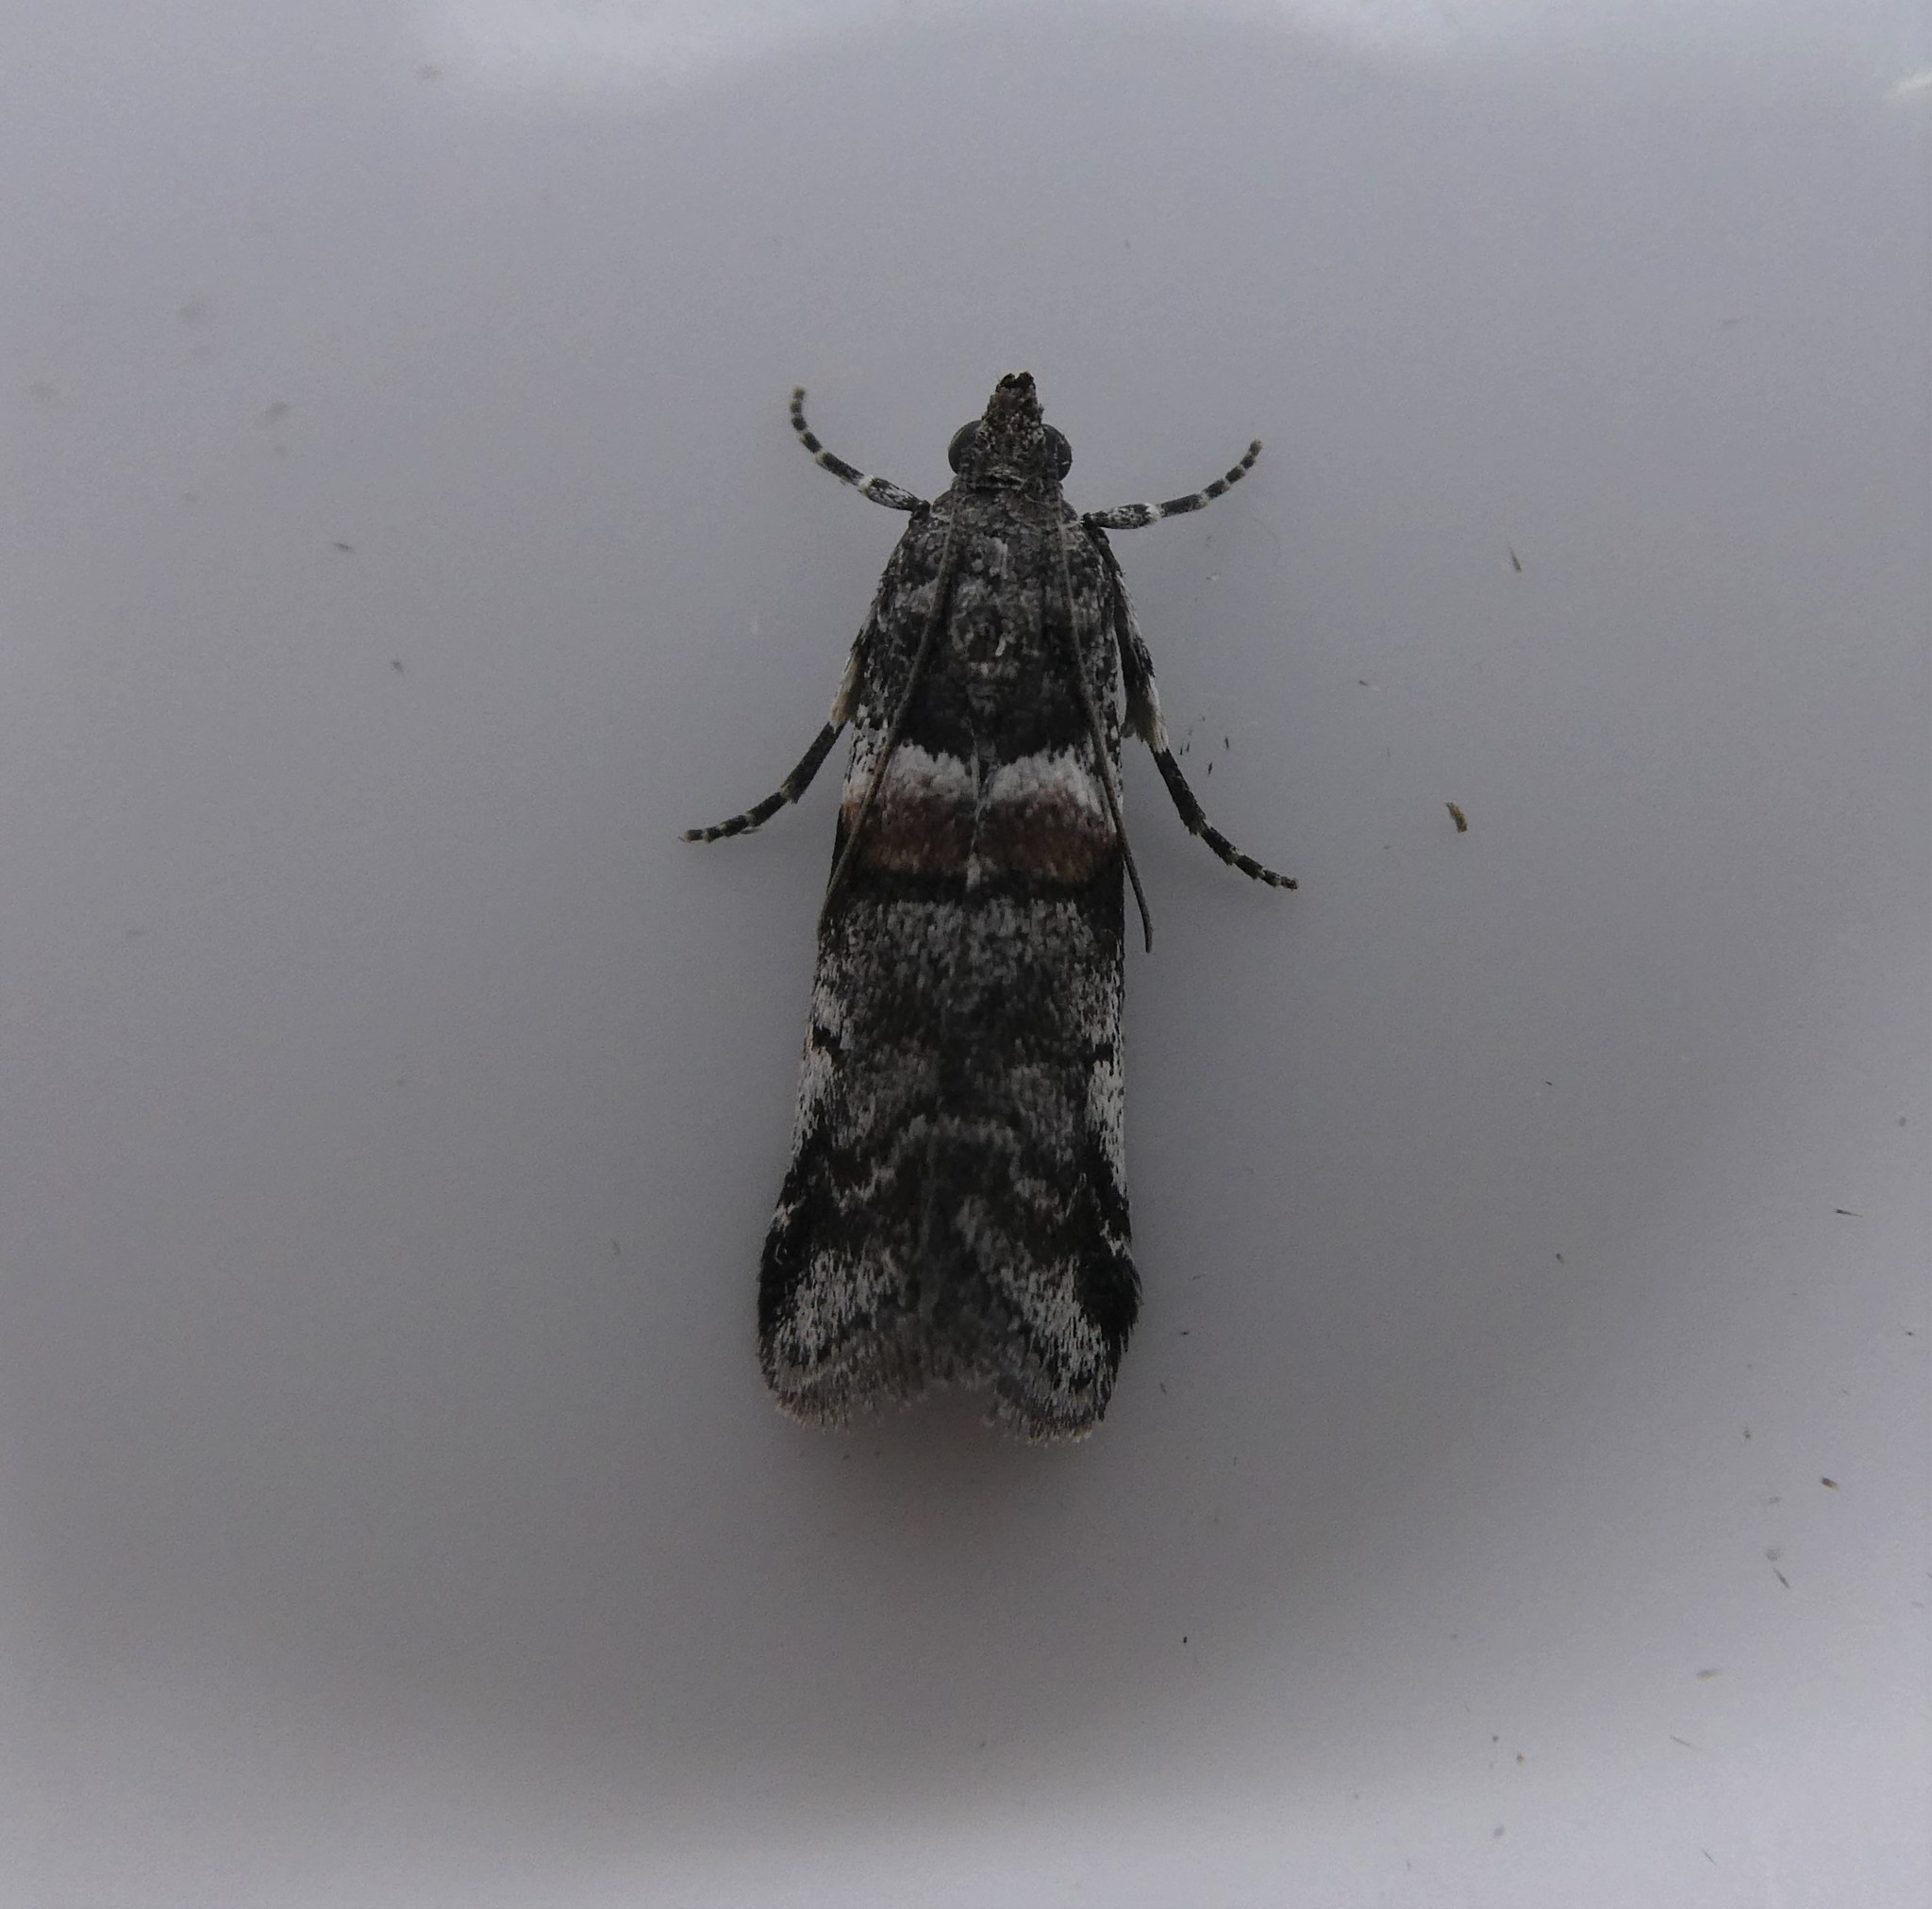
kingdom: Animalia
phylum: Arthropoda
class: Insecta
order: Lepidoptera
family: Pyralidae
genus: Acrobasis
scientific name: Acrobasis tricolorella
